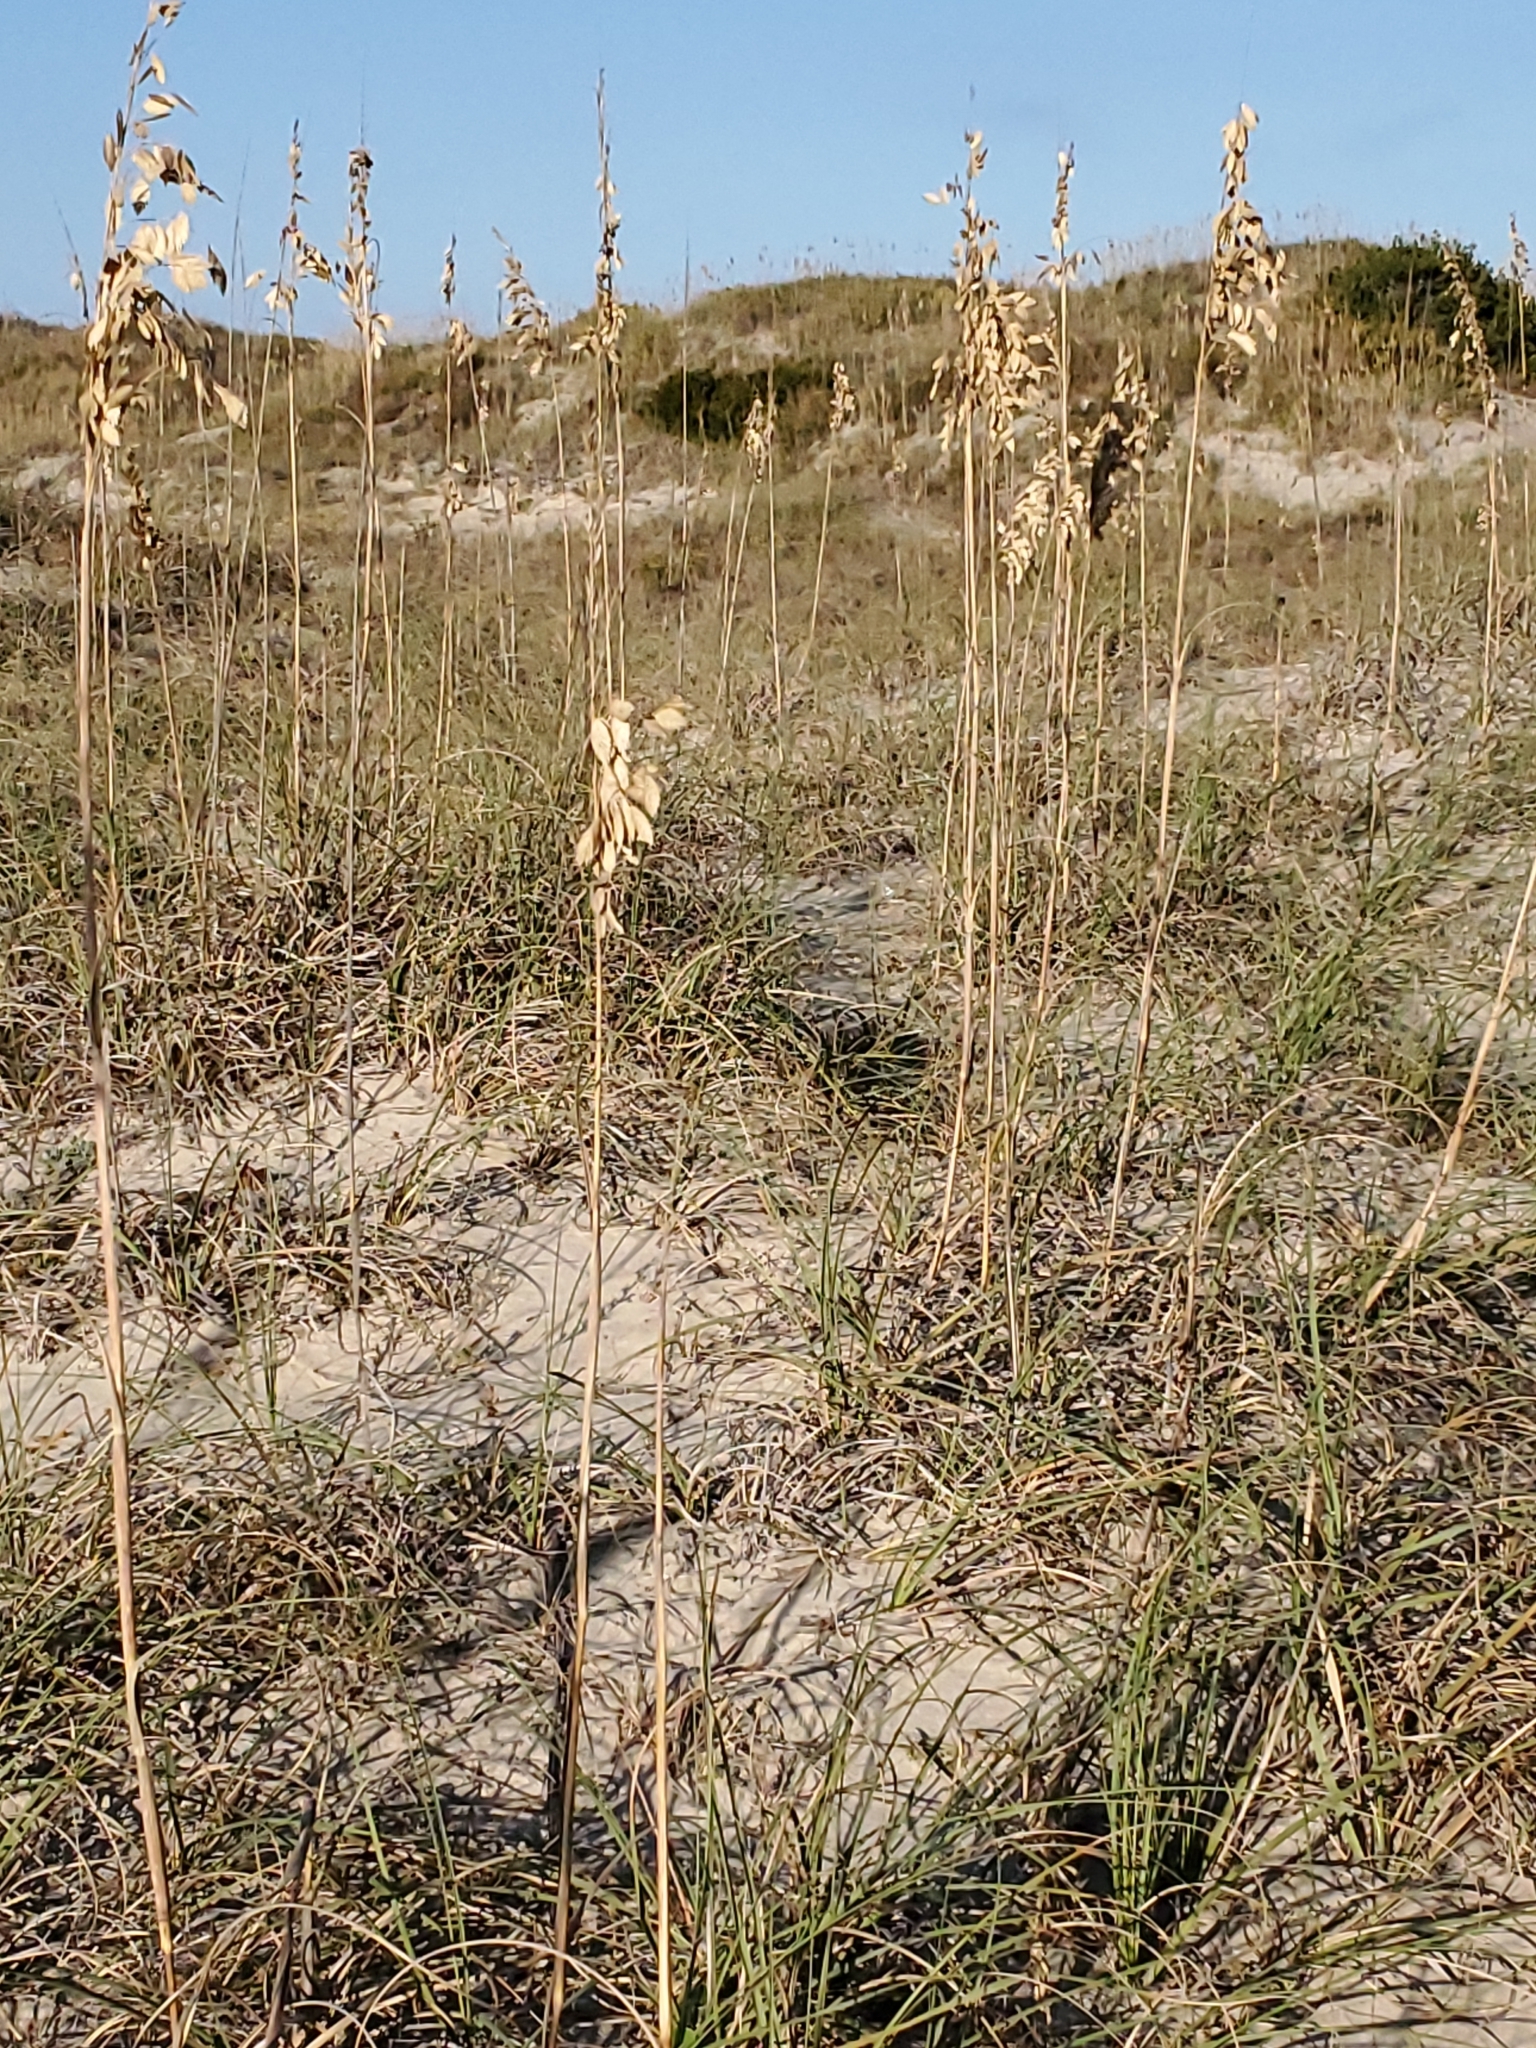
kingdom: Plantae
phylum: Tracheophyta
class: Liliopsida
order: Poales
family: Poaceae
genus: Uniola
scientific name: Uniola paniculata
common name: Seaside-oats
